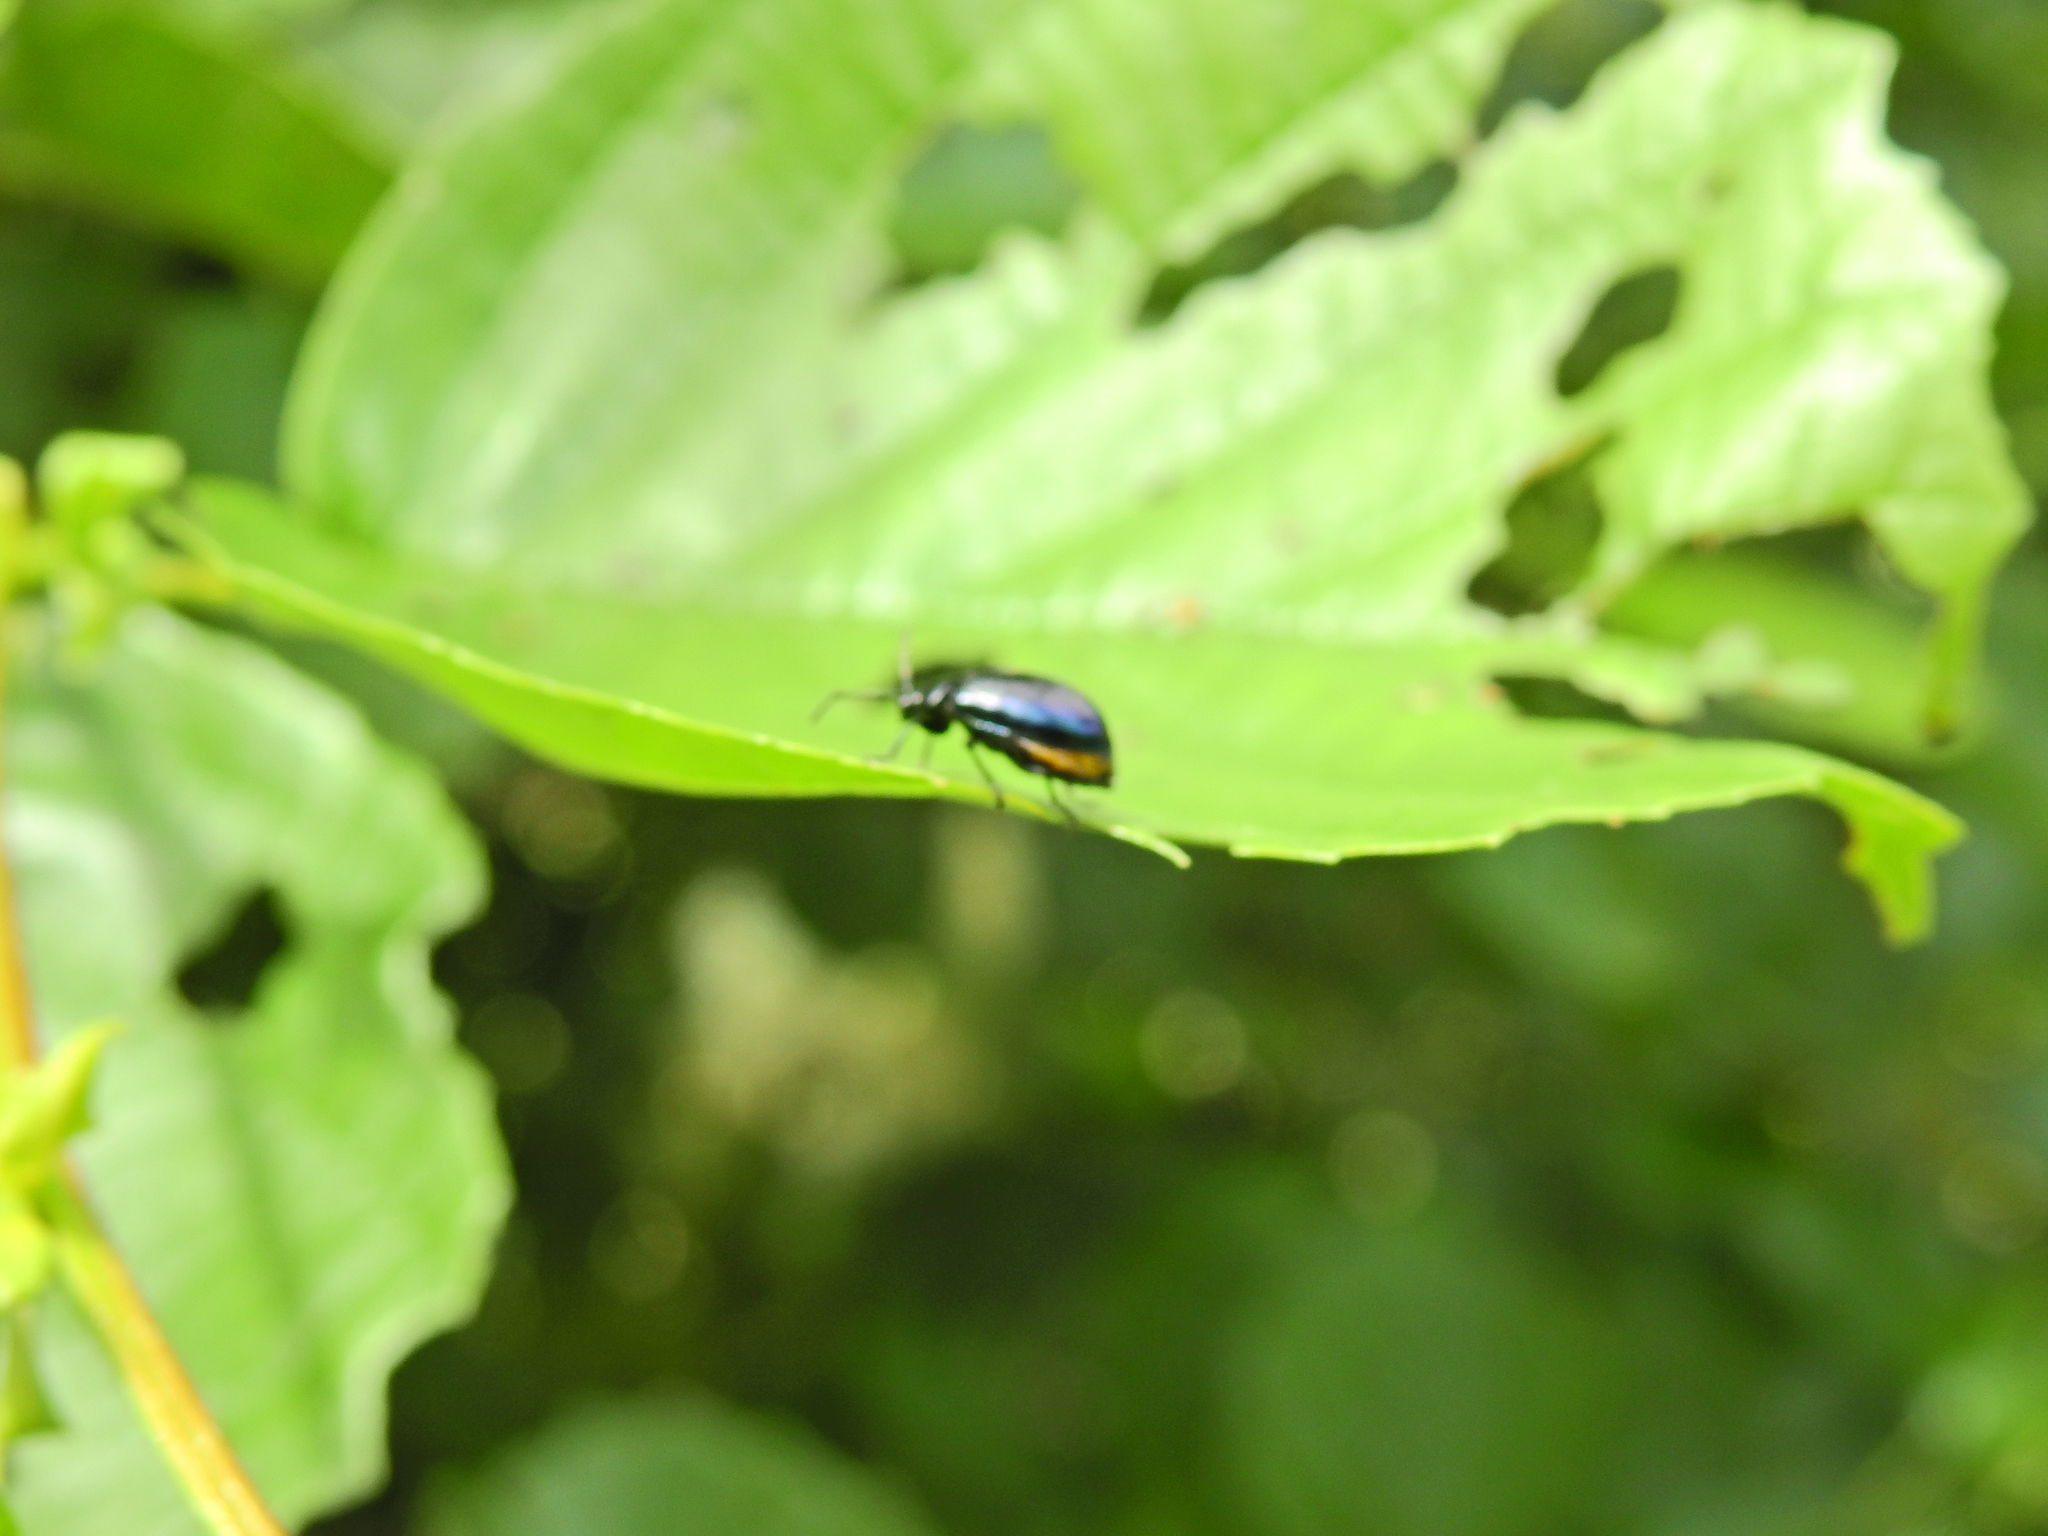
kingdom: Animalia
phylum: Arthropoda
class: Insecta
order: Coleoptera
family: Chrysomelidae
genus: Agelastica
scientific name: Agelastica alni
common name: Alder leaf beetle
